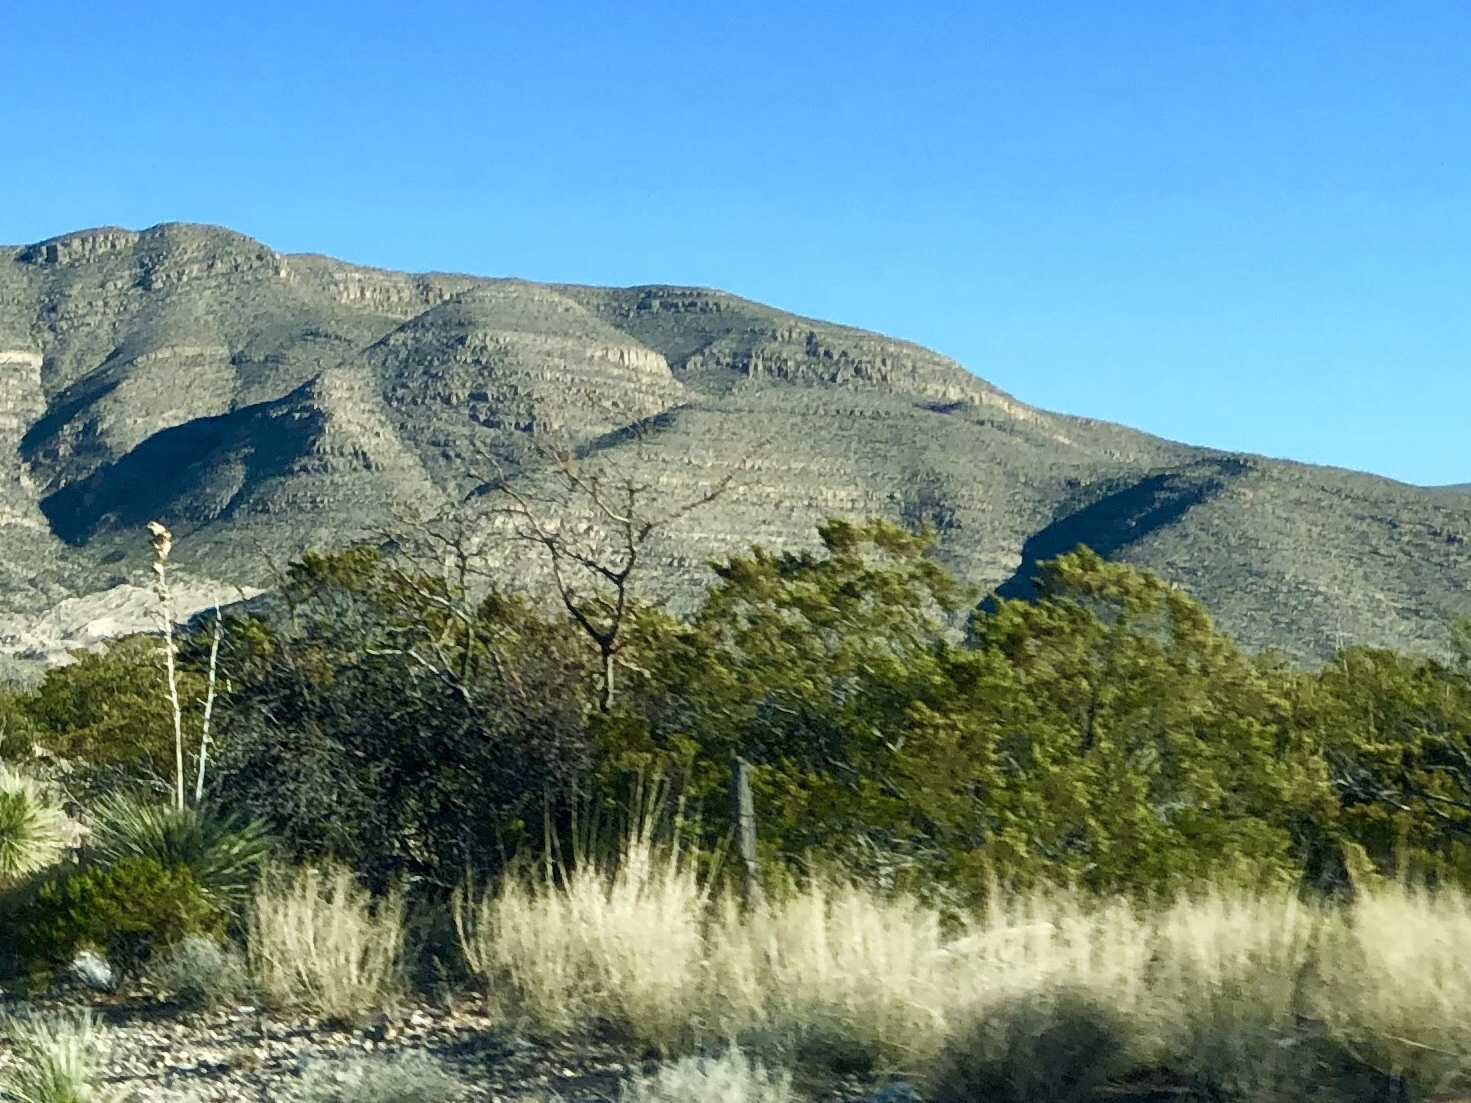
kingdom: Plantae
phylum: Tracheophyta
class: Magnoliopsida
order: Zygophyllales
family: Zygophyllaceae
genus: Larrea
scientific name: Larrea tridentata
